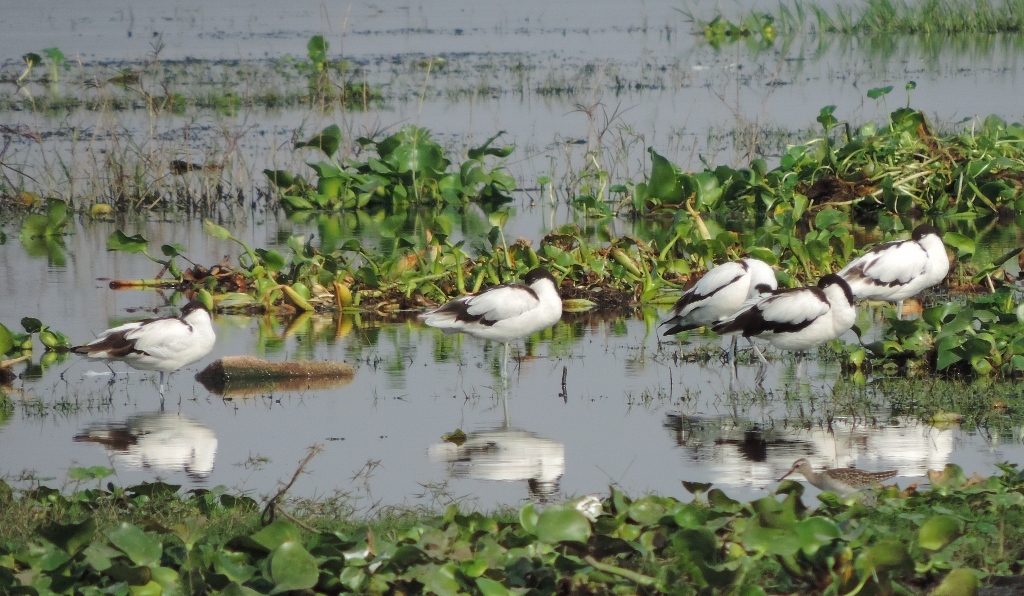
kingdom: Animalia
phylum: Chordata
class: Aves
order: Charadriiformes
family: Recurvirostridae
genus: Recurvirostra
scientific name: Recurvirostra avosetta
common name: Pied avocet
